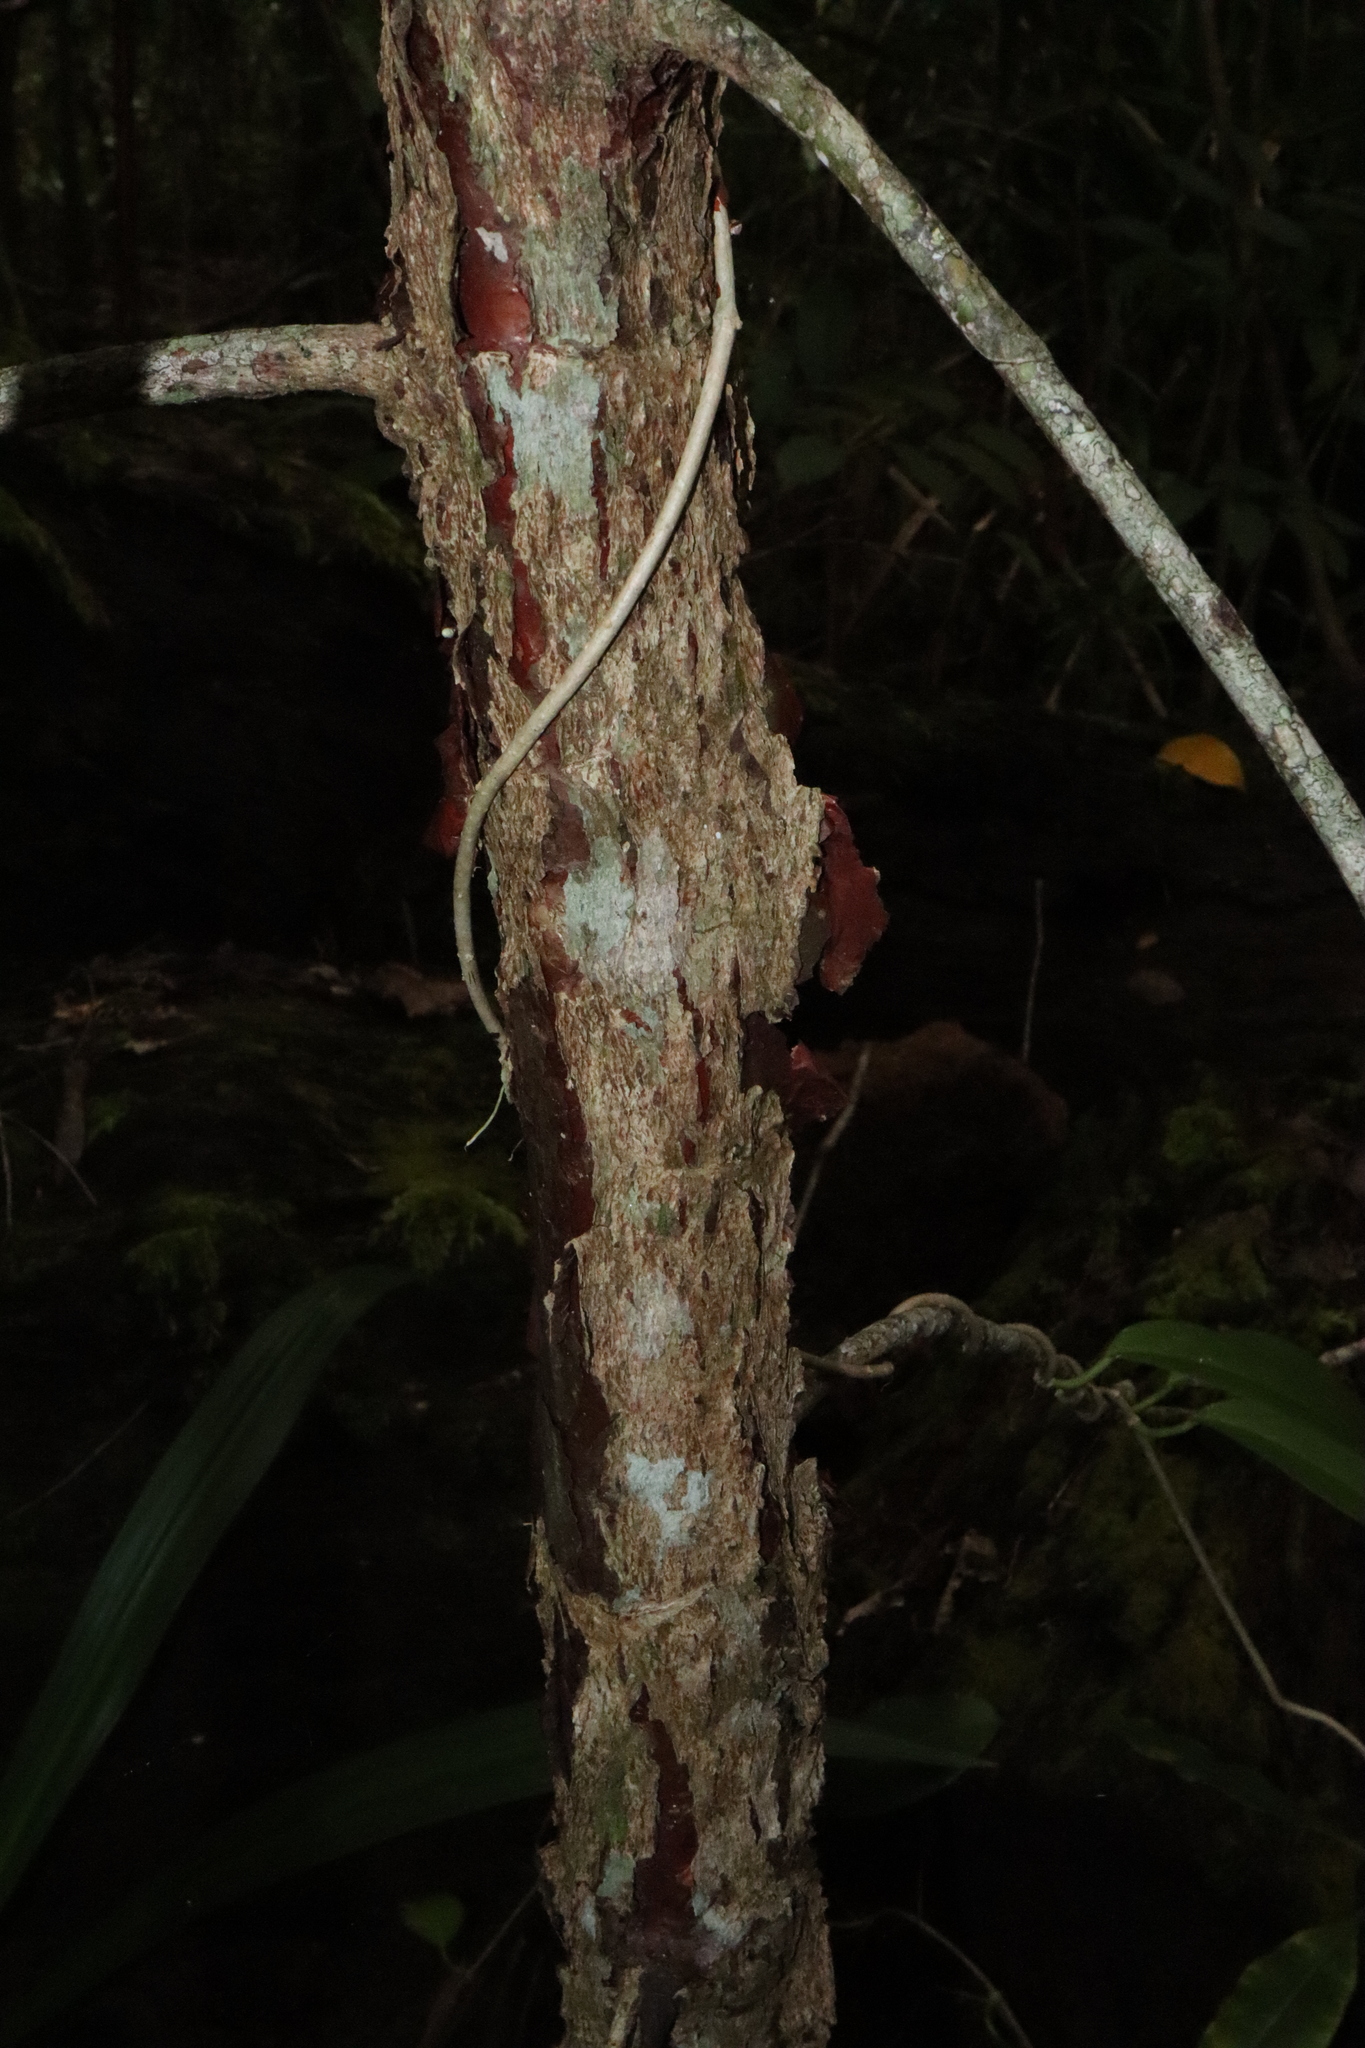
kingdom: Plantae
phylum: Tracheophyta
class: Magnoliopsida
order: Dilleniales
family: Dilleniaceae
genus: Dillenia
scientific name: Dillenia alata
